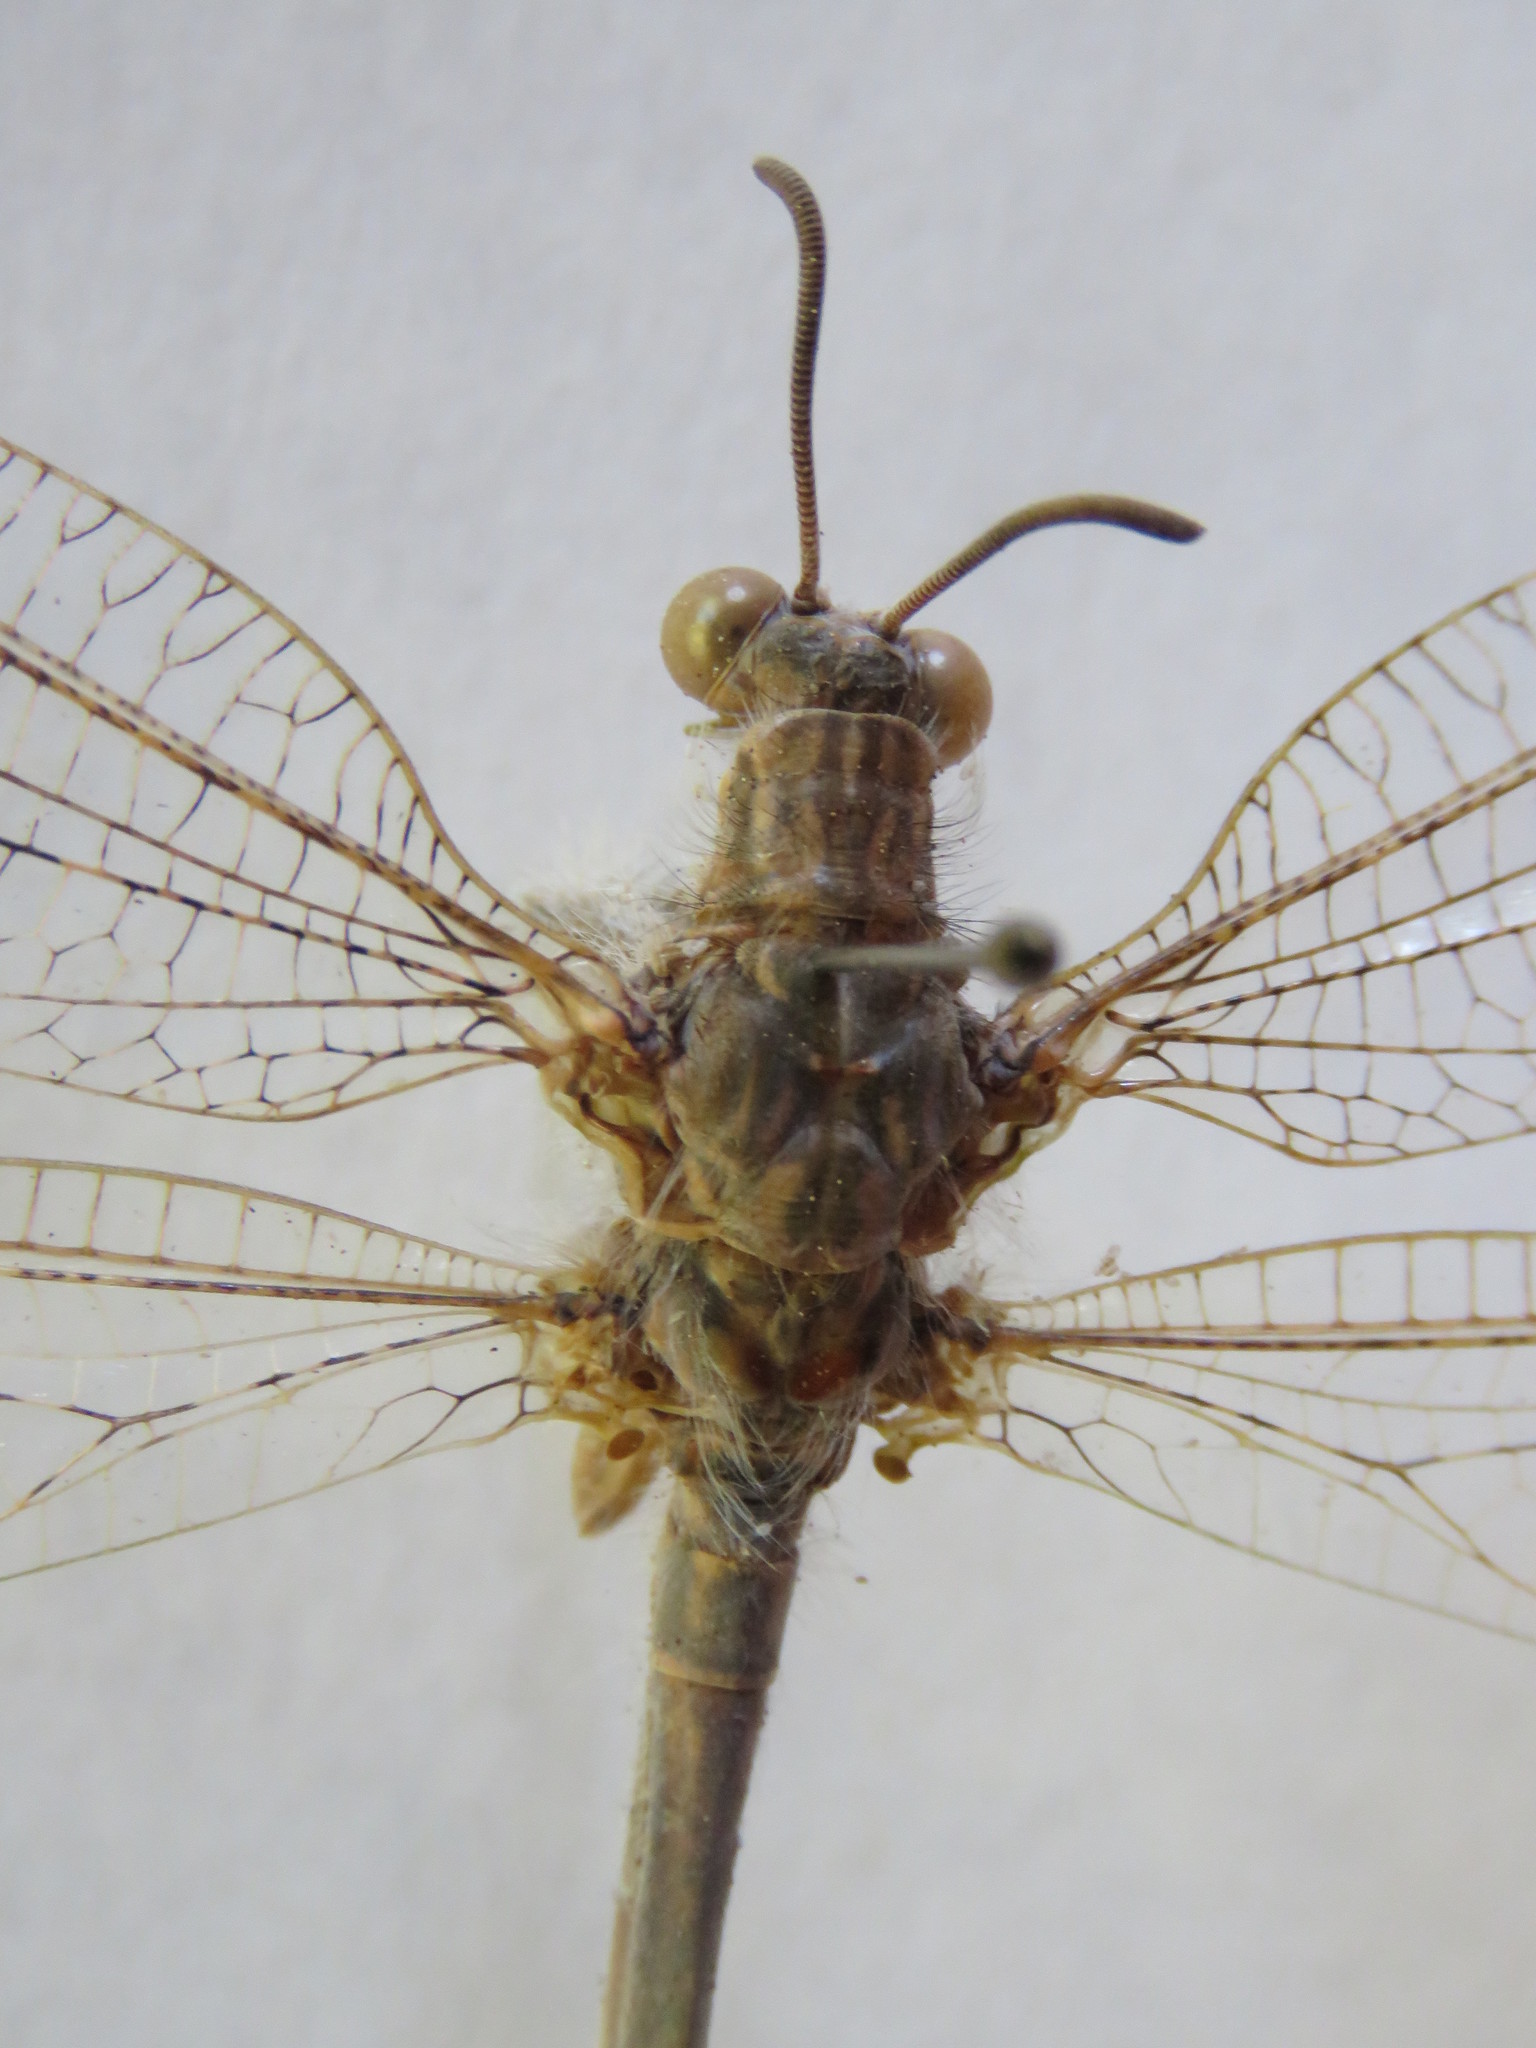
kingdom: Animalia
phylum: Arthropoda
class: Insecta
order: Neuroptera
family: Myrmeleontidae
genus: Vella
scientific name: Vella fallax
